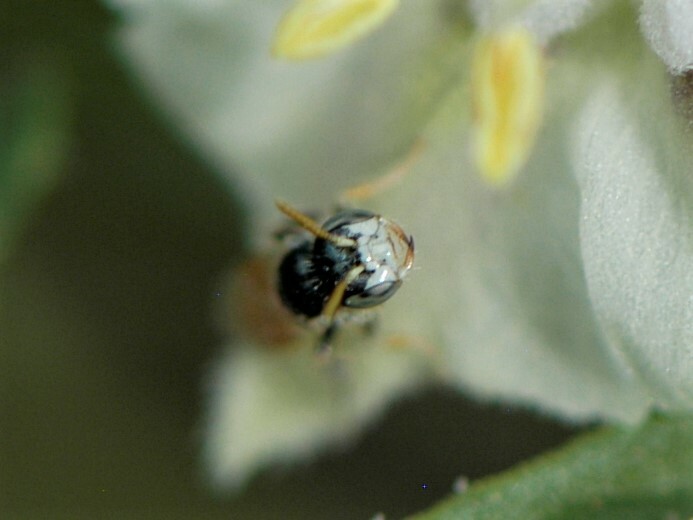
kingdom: Animalia
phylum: Arthropoda
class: Insecta
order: Hymenoptera
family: Andrenidae
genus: Perdita
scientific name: Perdita chamaesarachae
